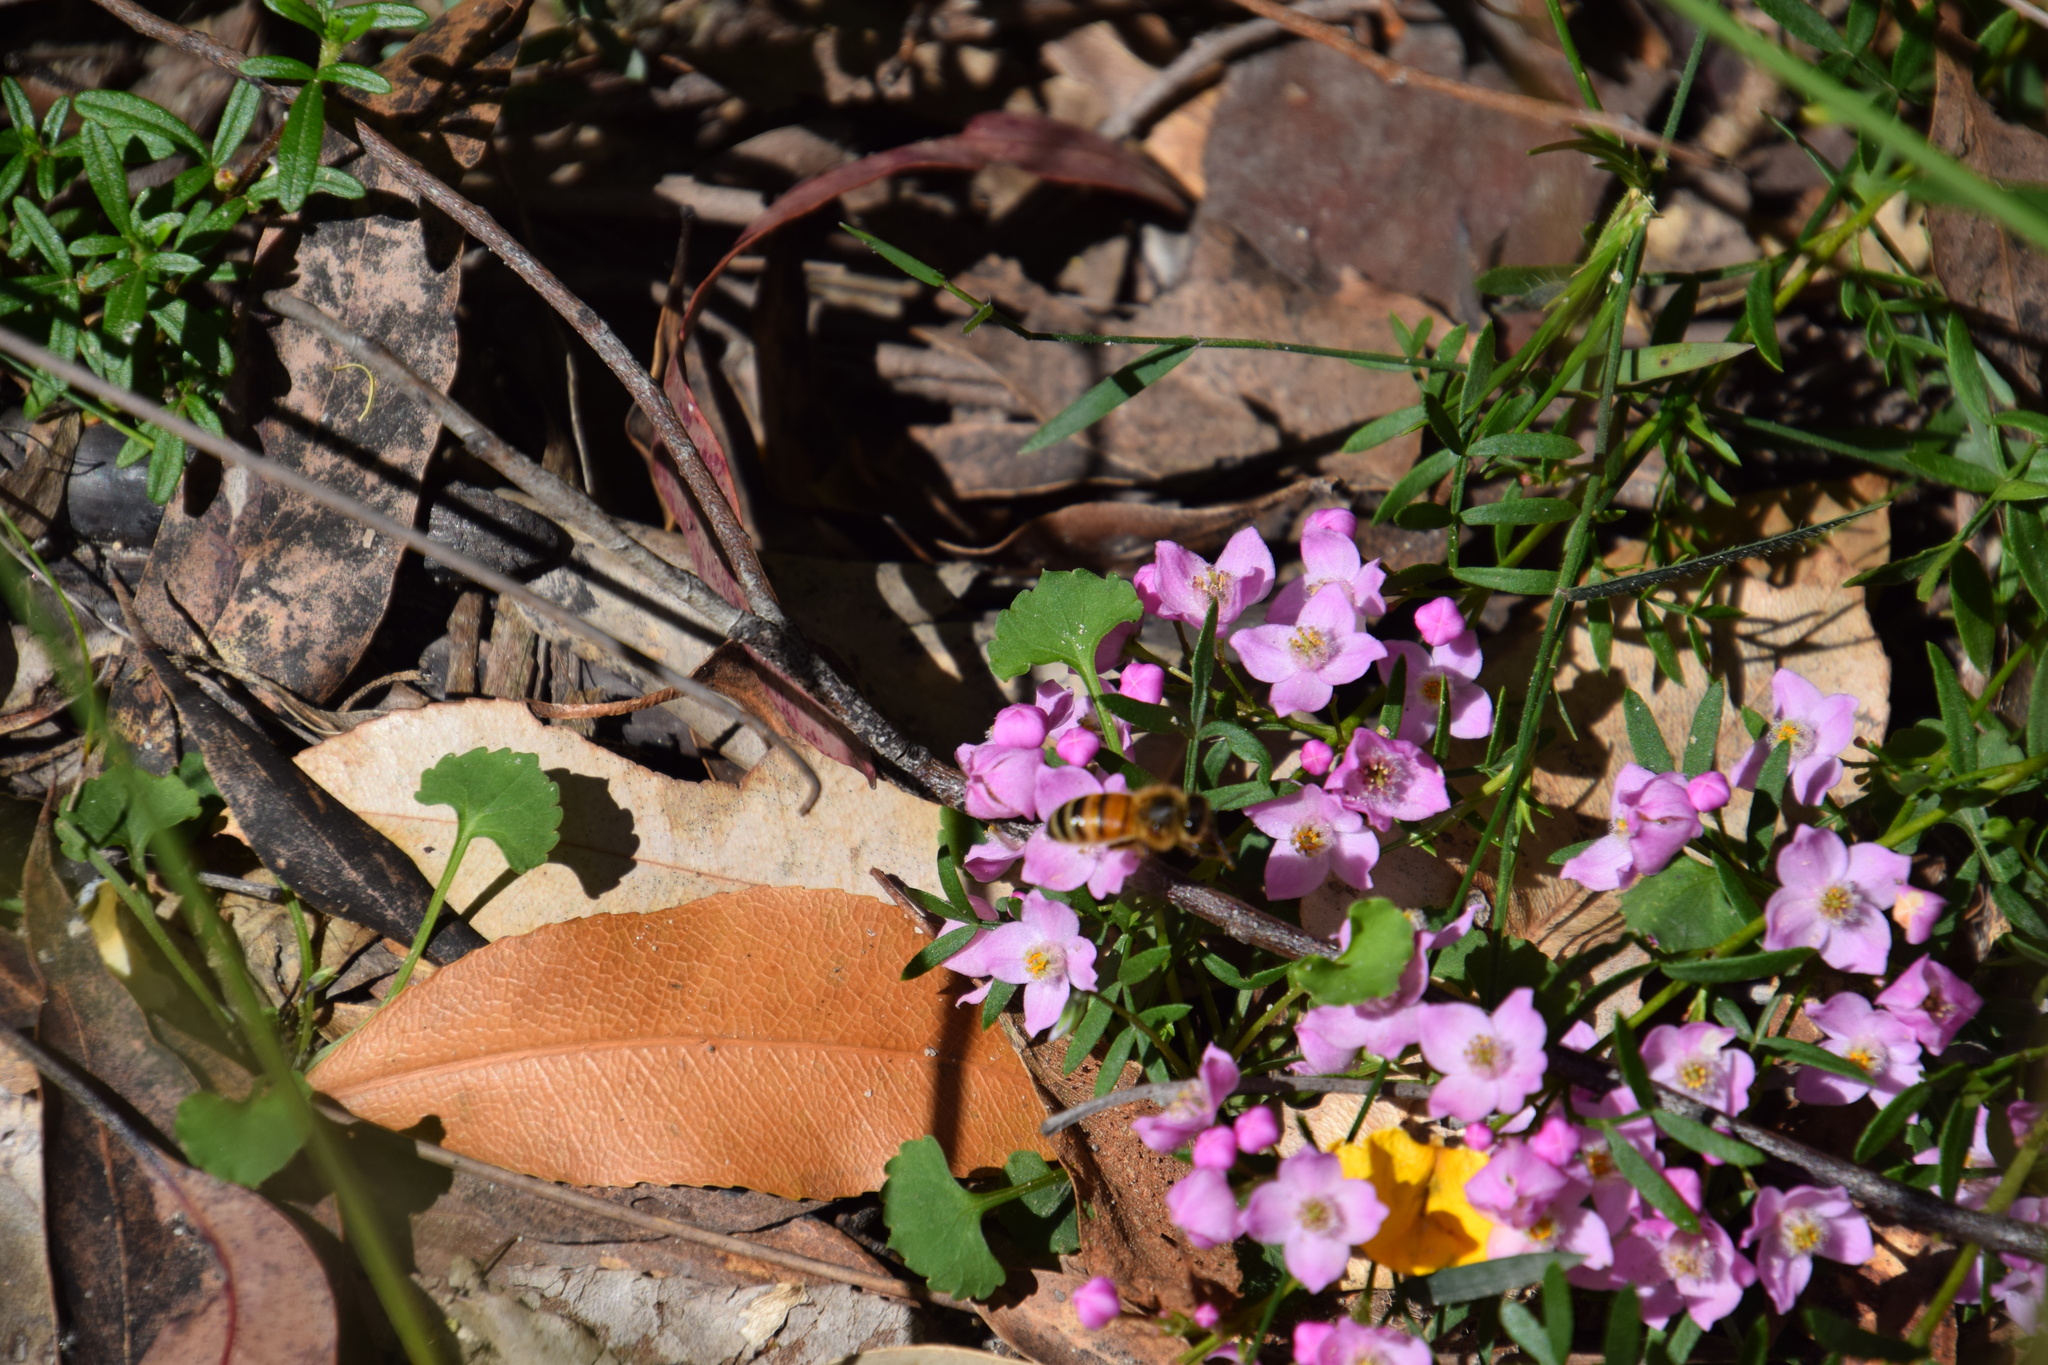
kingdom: Animalia
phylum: Arthropoda
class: Insecta
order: Hymenoptera
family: Apidae
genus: Apis
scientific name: Apis mellifera
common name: Honey bee
